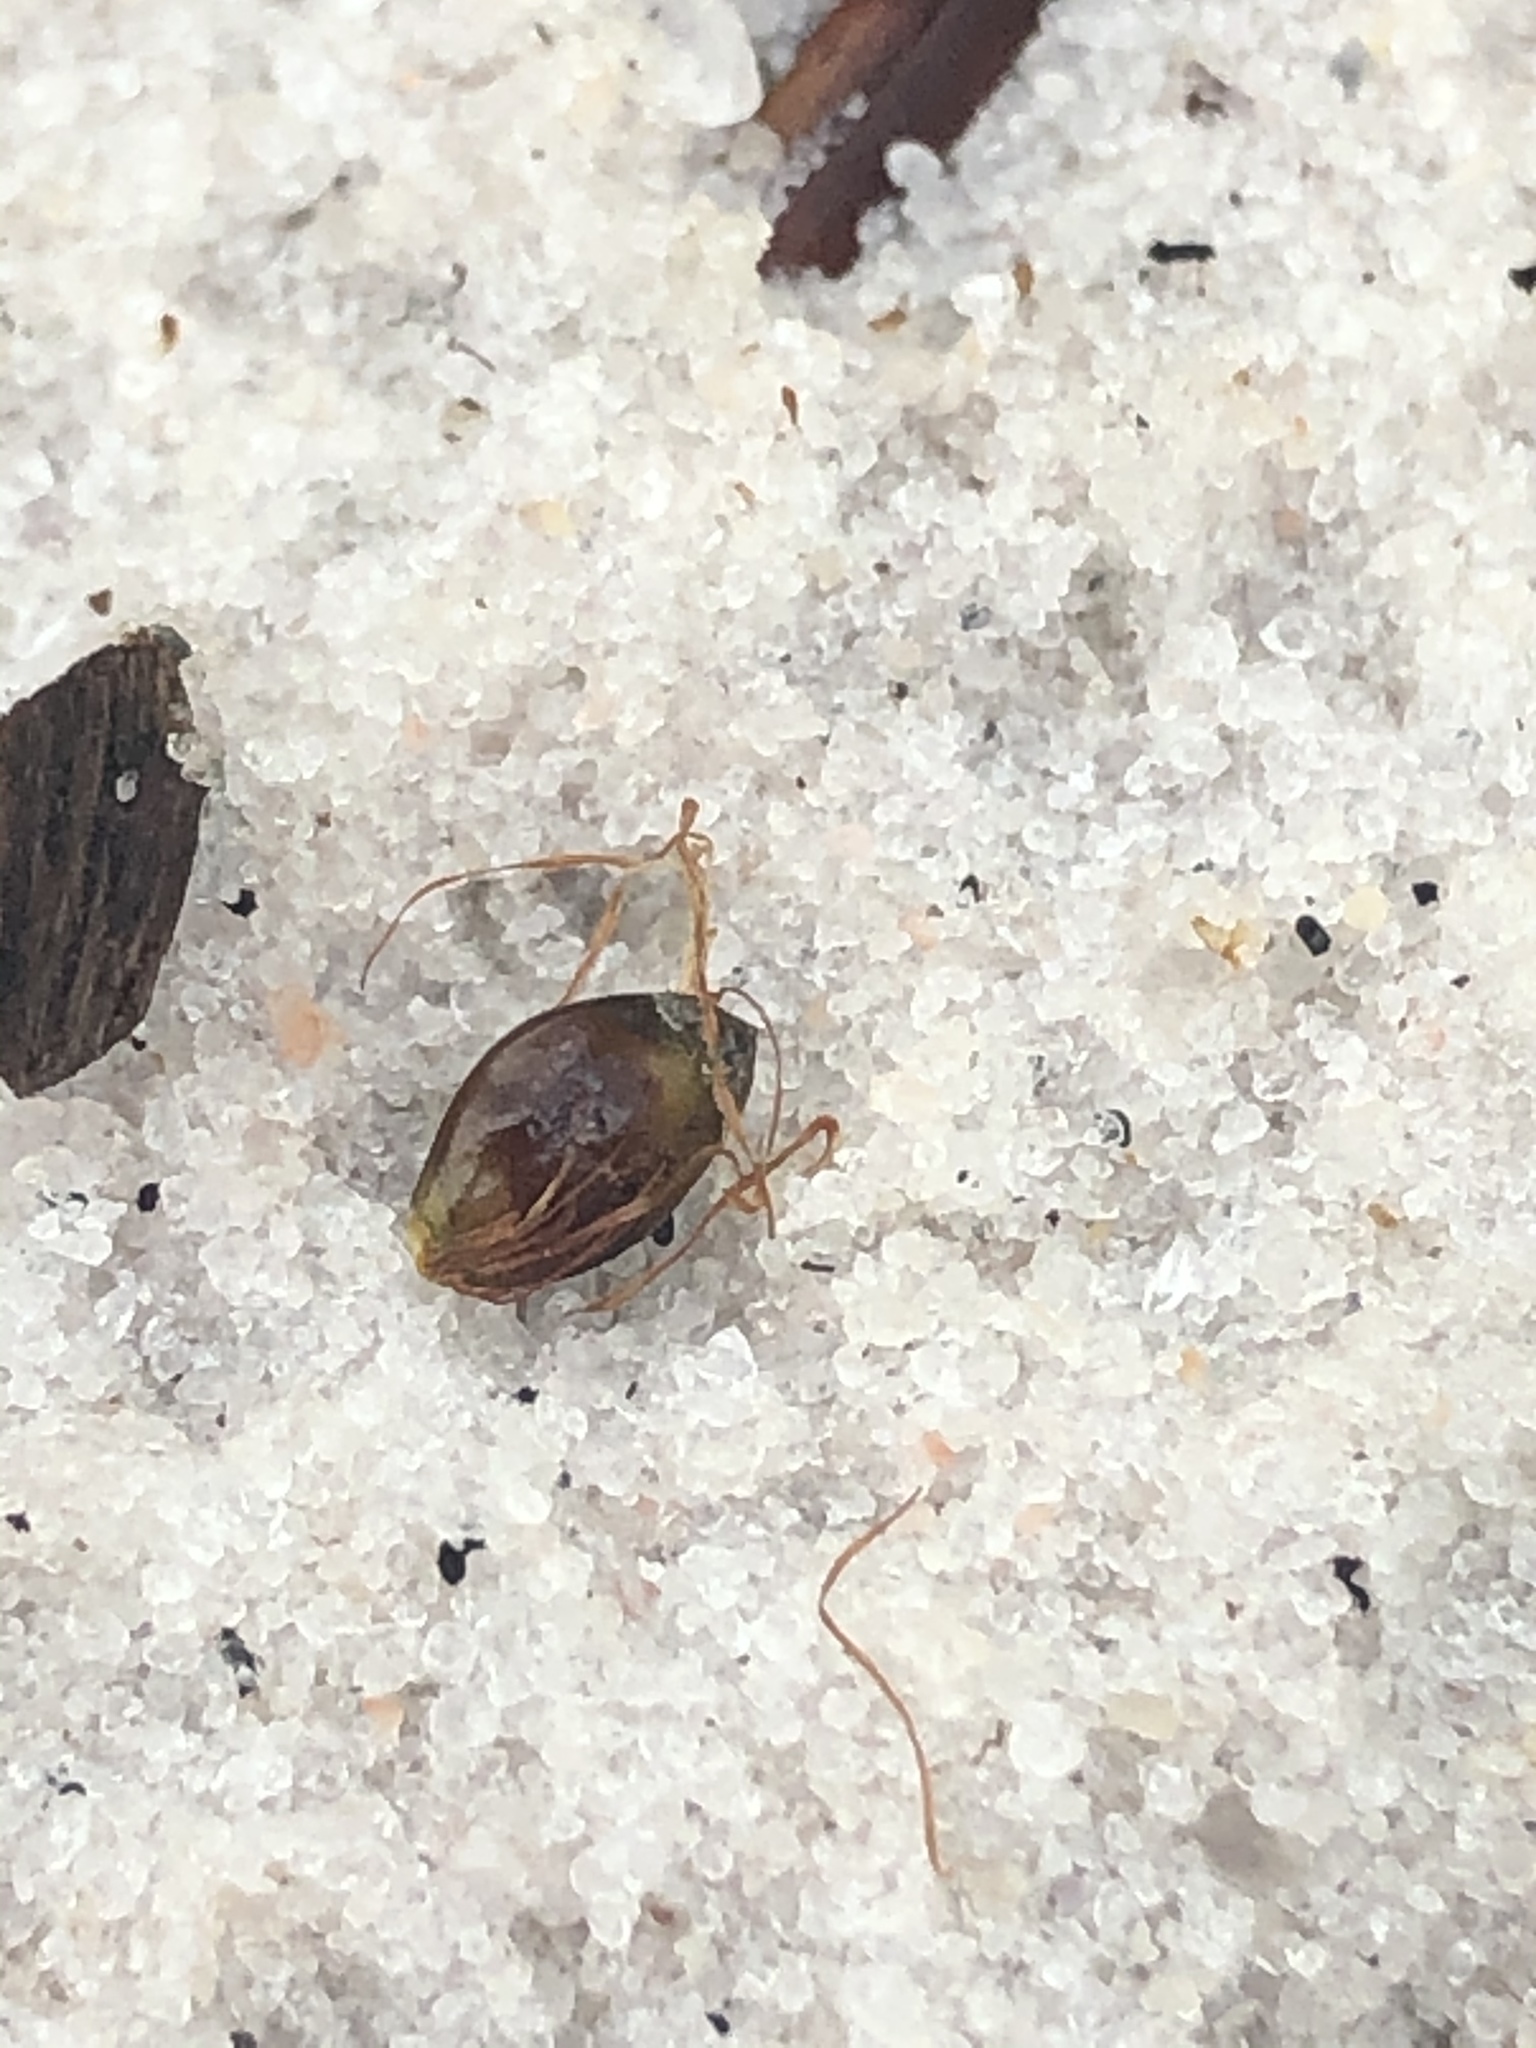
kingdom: Plantae
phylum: Tracheophyta
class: Liliopsida
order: Poales
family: Cyperaceae
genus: Rhynchospora
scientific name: Rhynchospora megalocarpa
